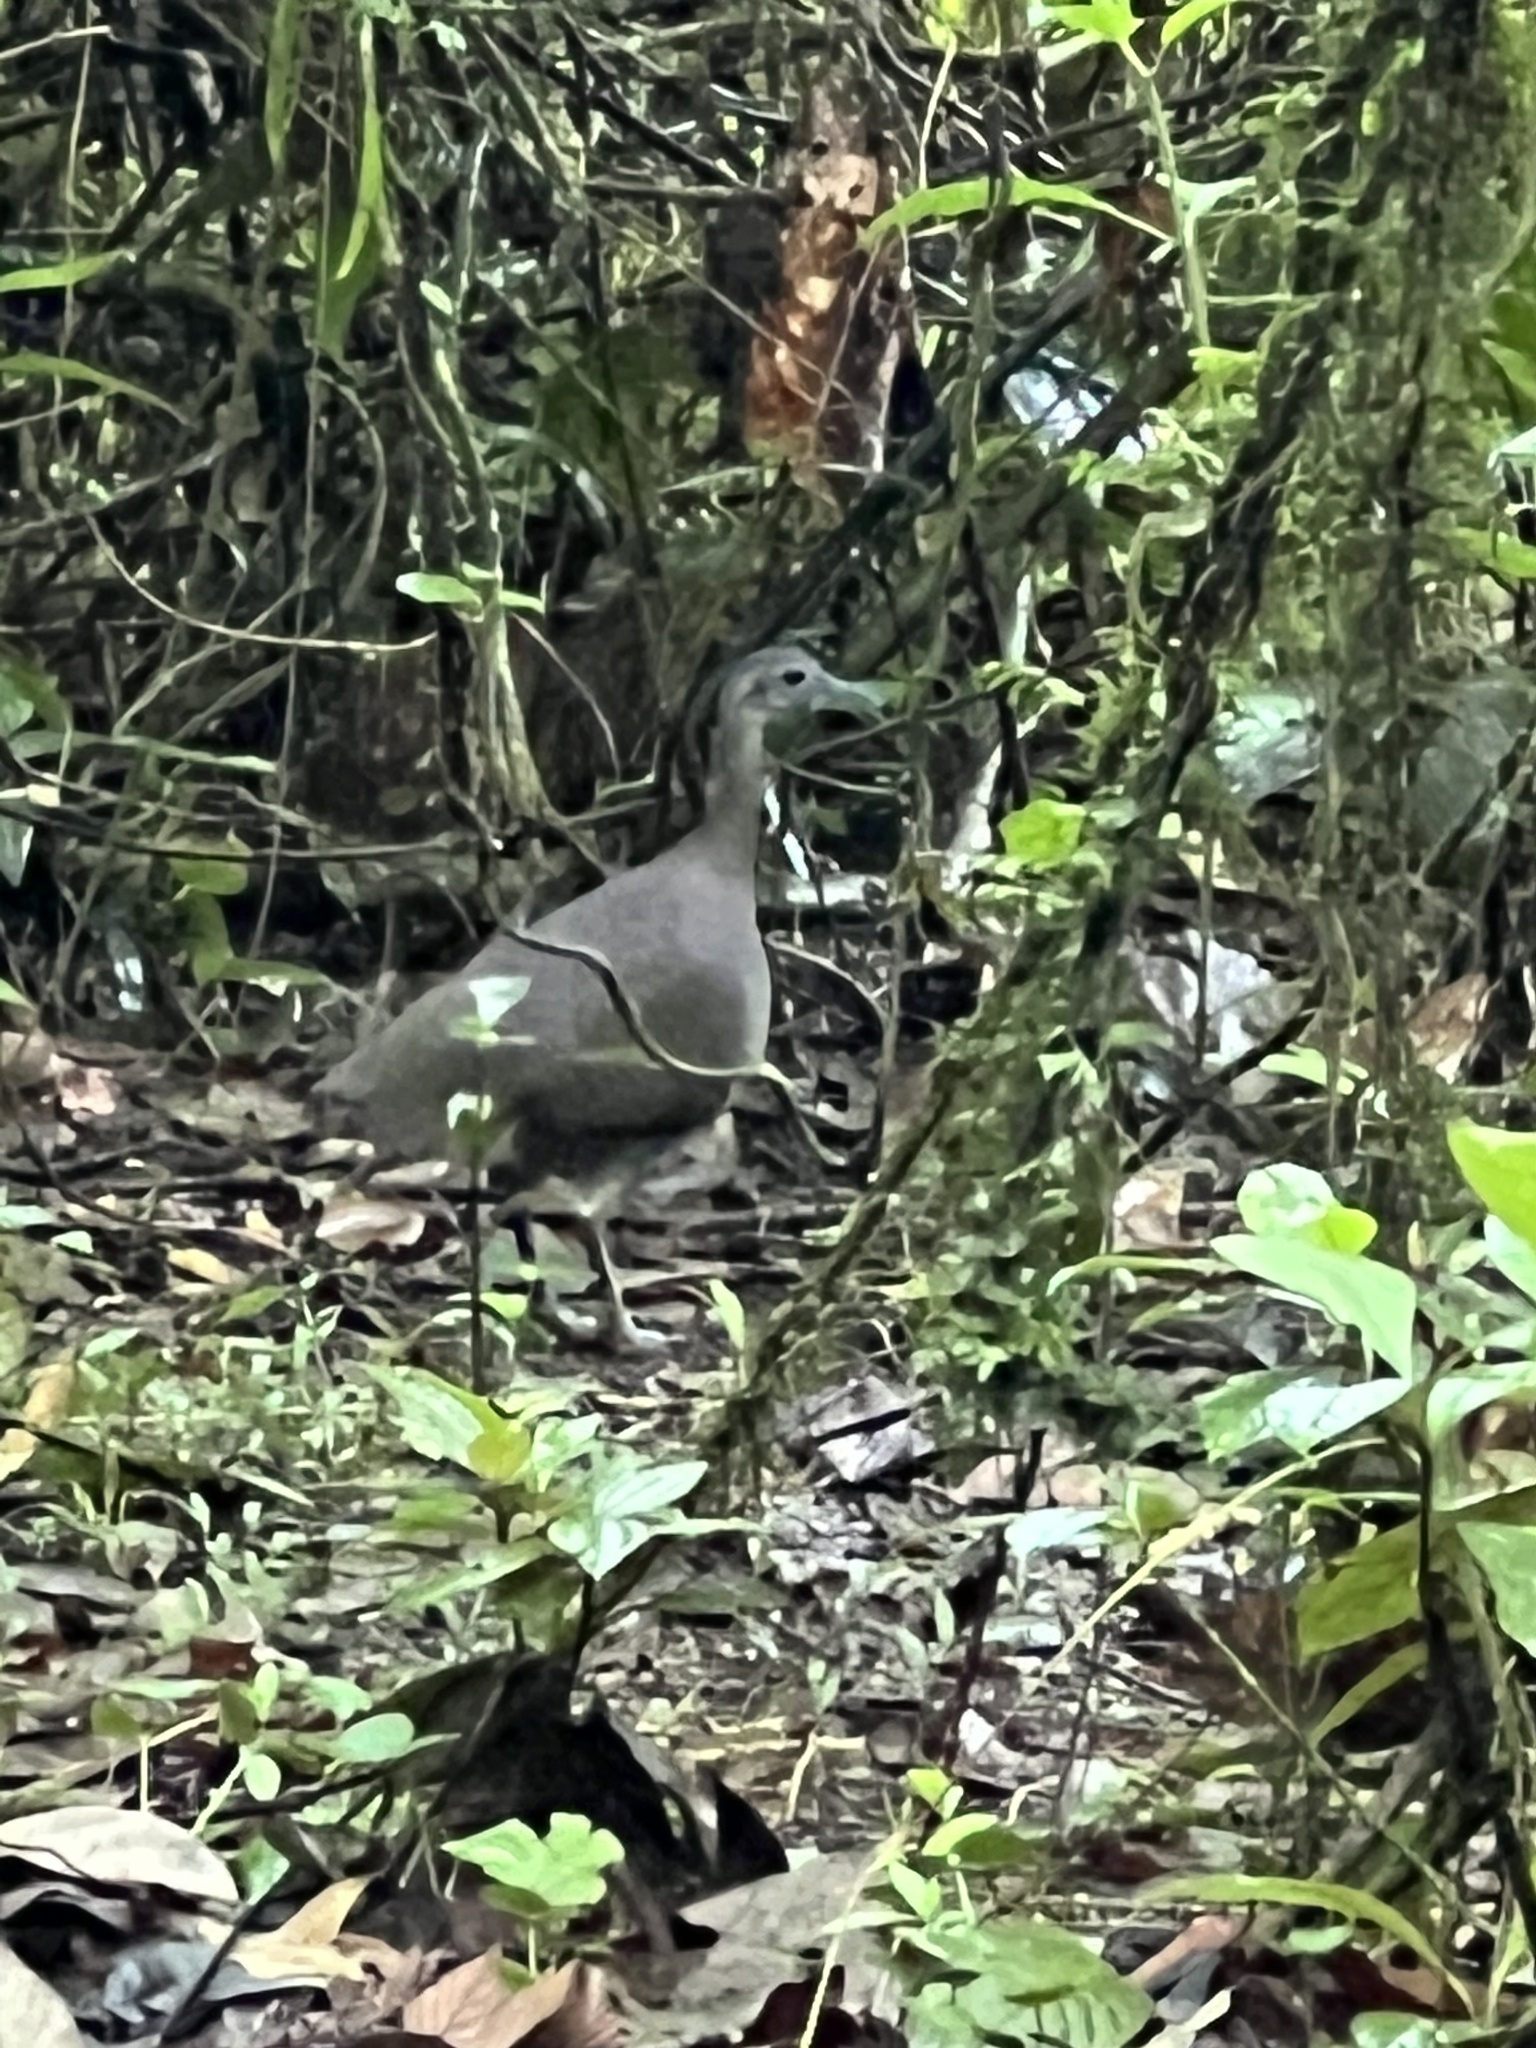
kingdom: Animalia
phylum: Chordata
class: Aves
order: Tinamiformes
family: Tinamidae
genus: Tinamus
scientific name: Tinamus major
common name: Great tinamou
